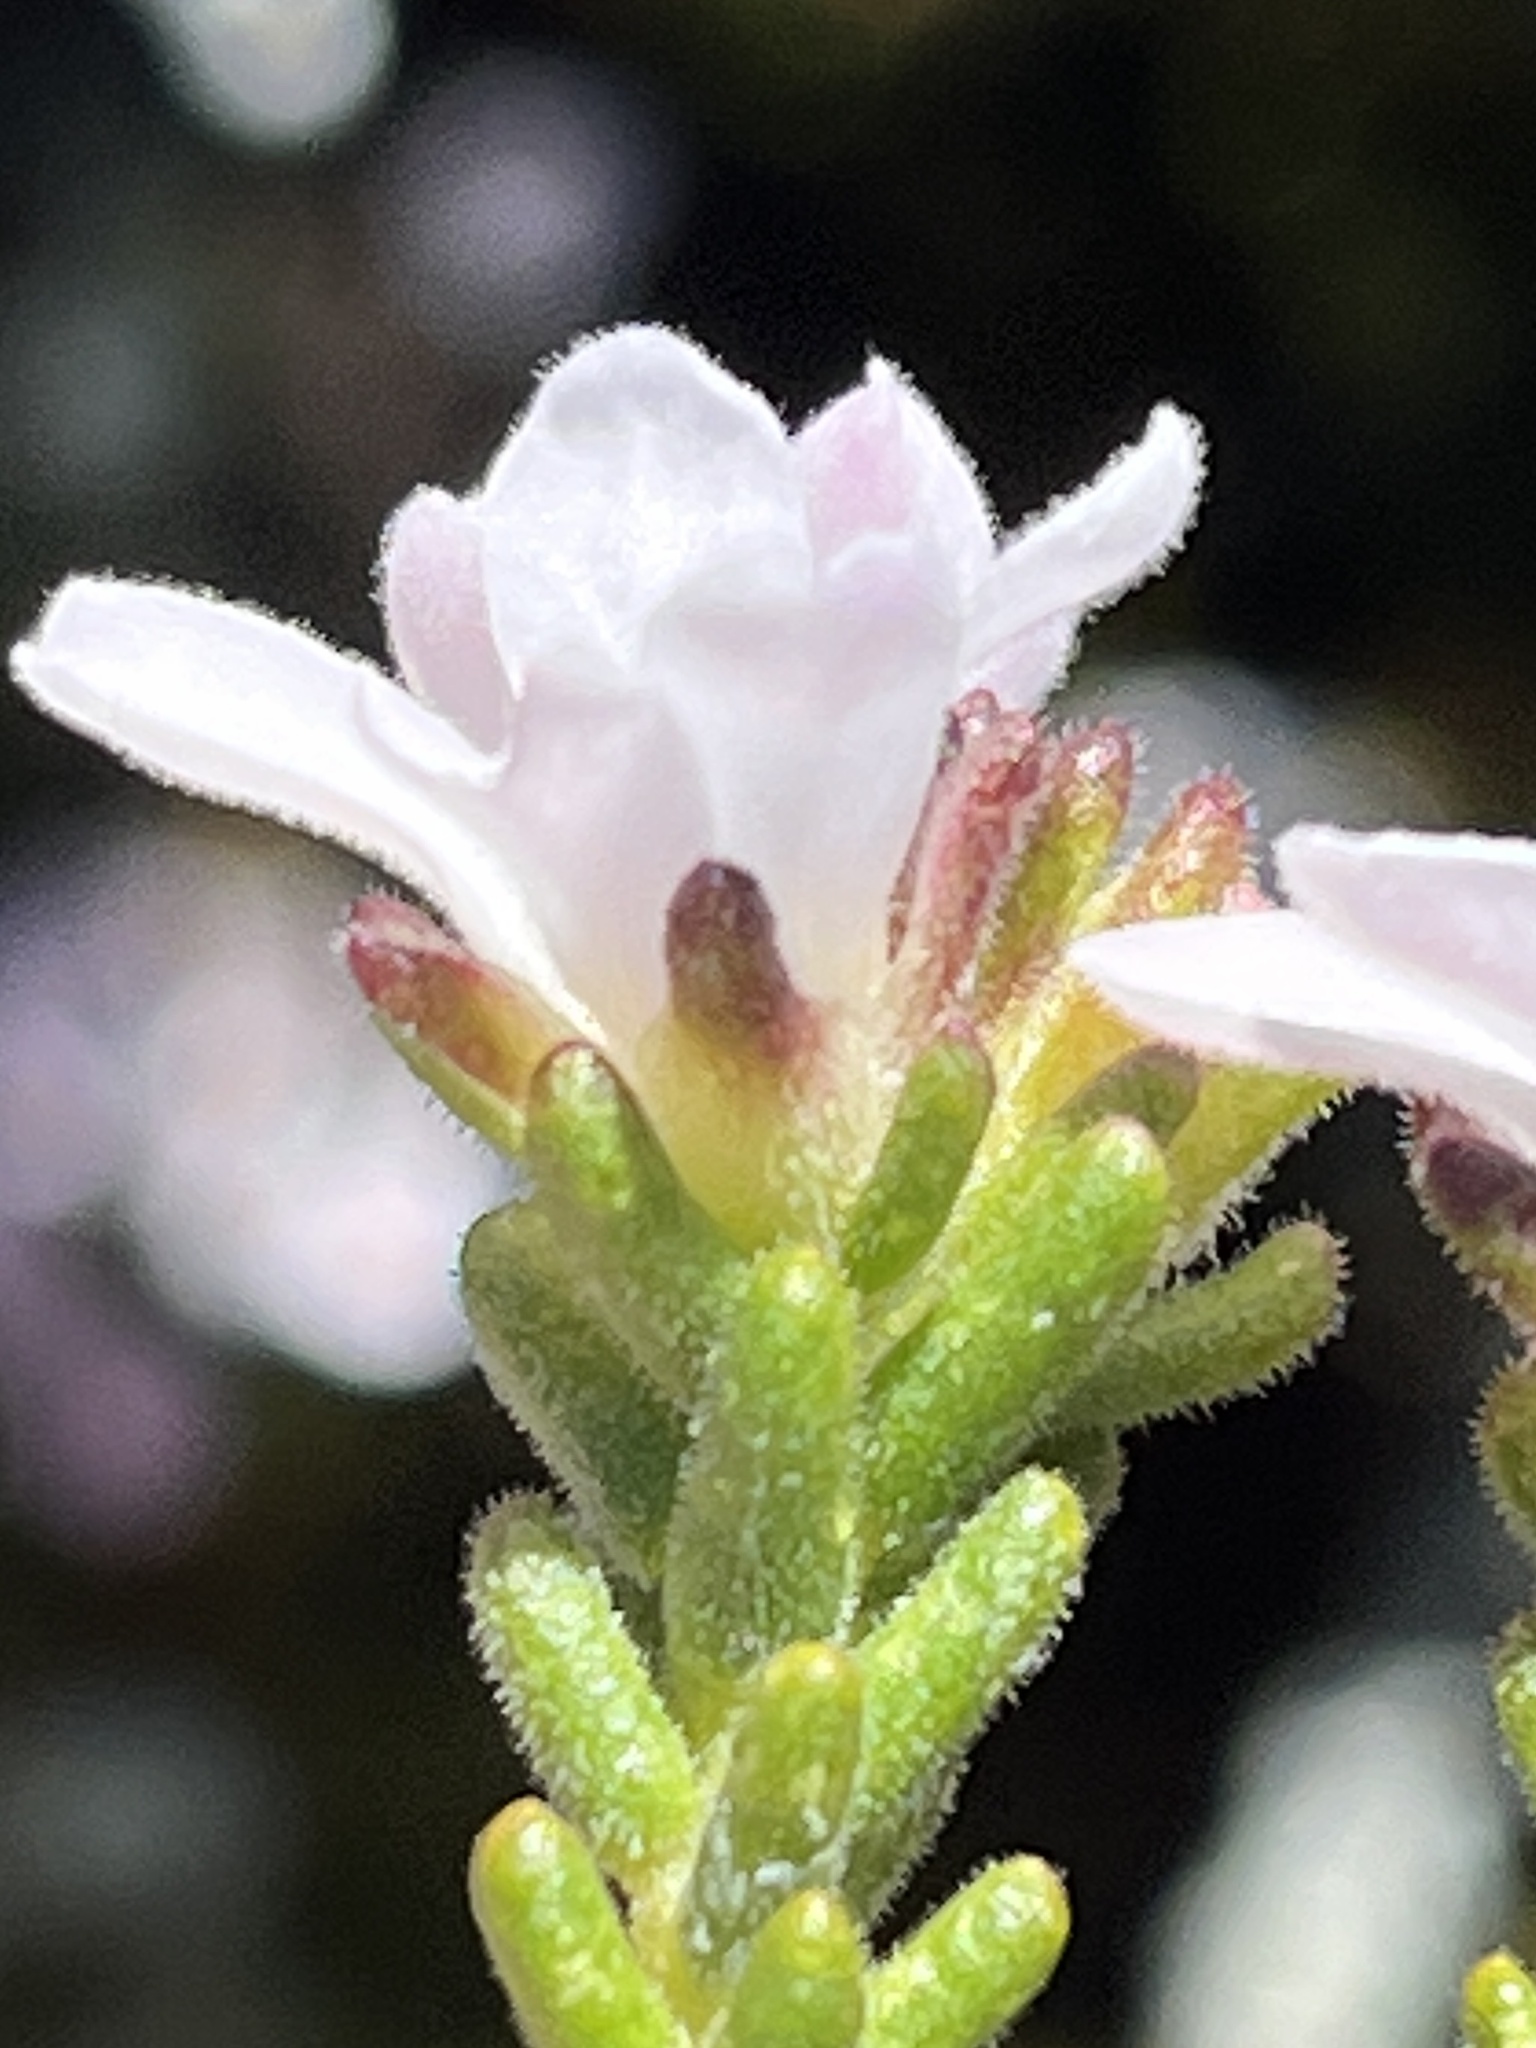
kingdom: Plantae
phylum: Tracheophyta
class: Magnoliopsida
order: Sapindales
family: Rutaceae
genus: Acmadenia
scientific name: Acmadenia teretifolia
